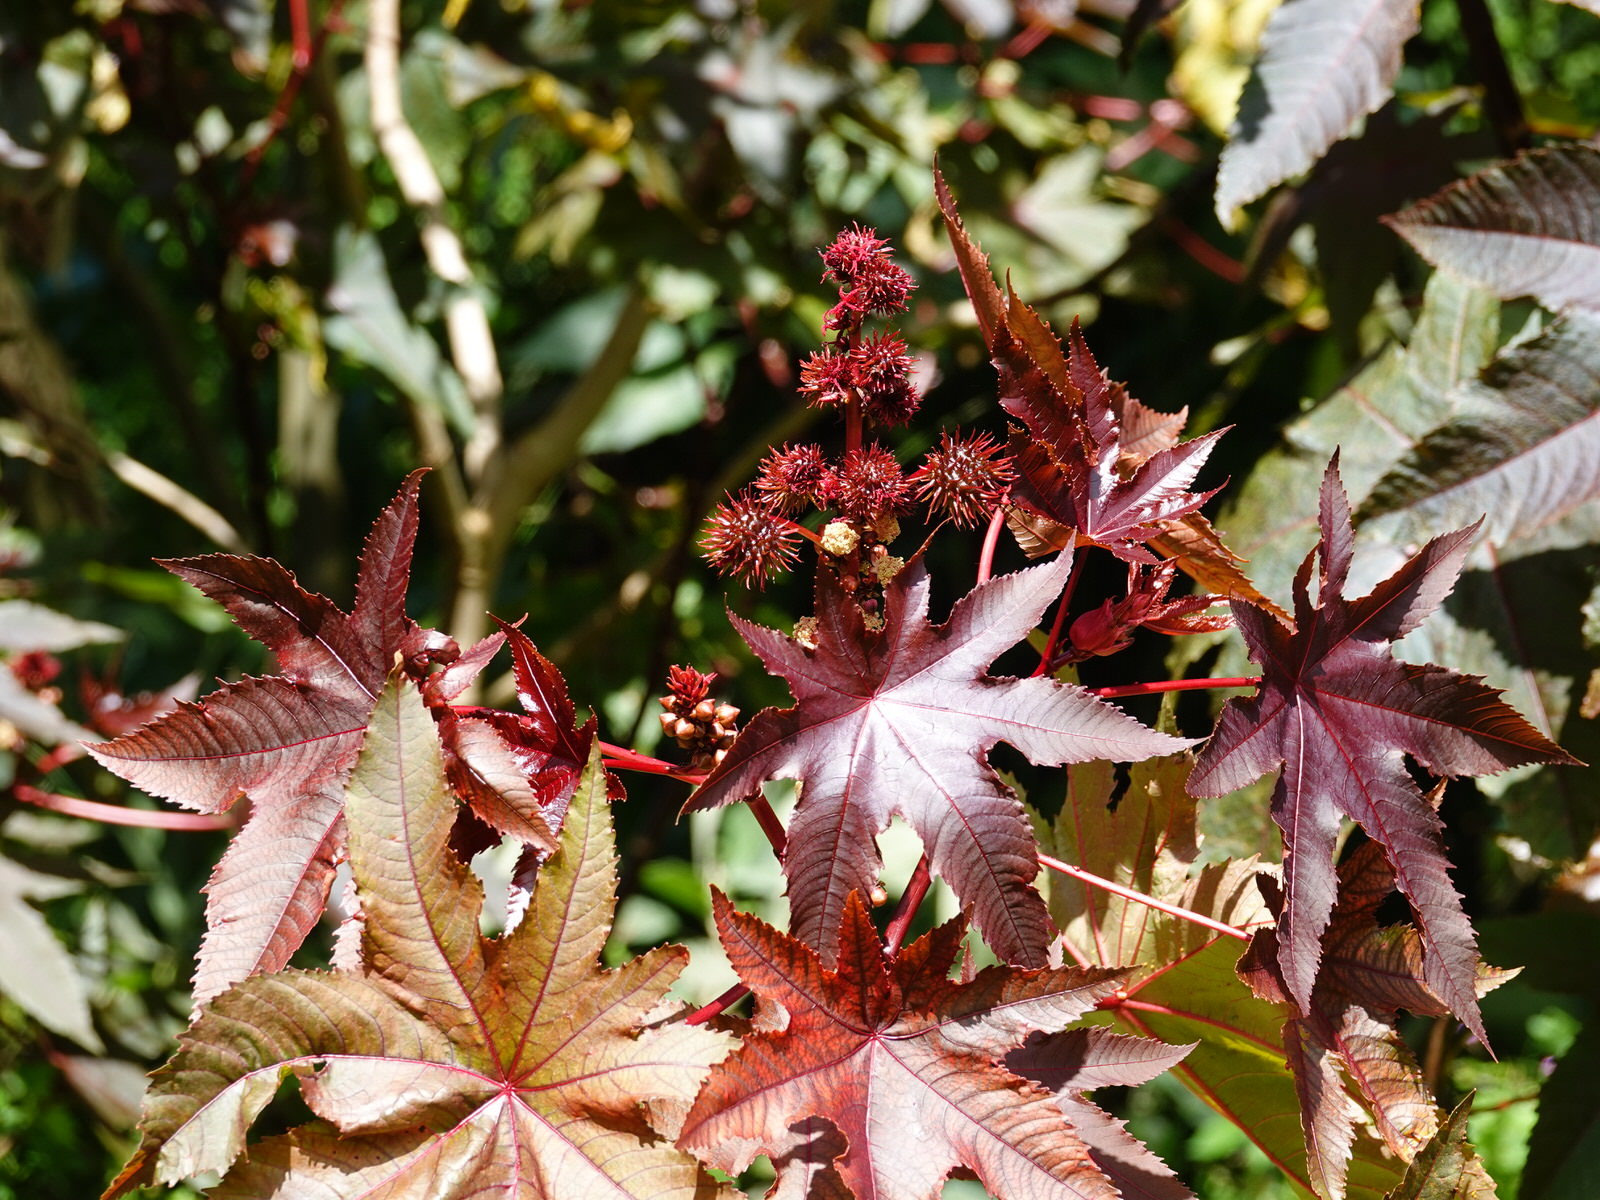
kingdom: Plantae
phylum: Tracheophyta
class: Magnoliopsida
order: Malpighiales
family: Euphorbiaceae
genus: Ricinus
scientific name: Ricinus communis
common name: Castor-oil-plant
